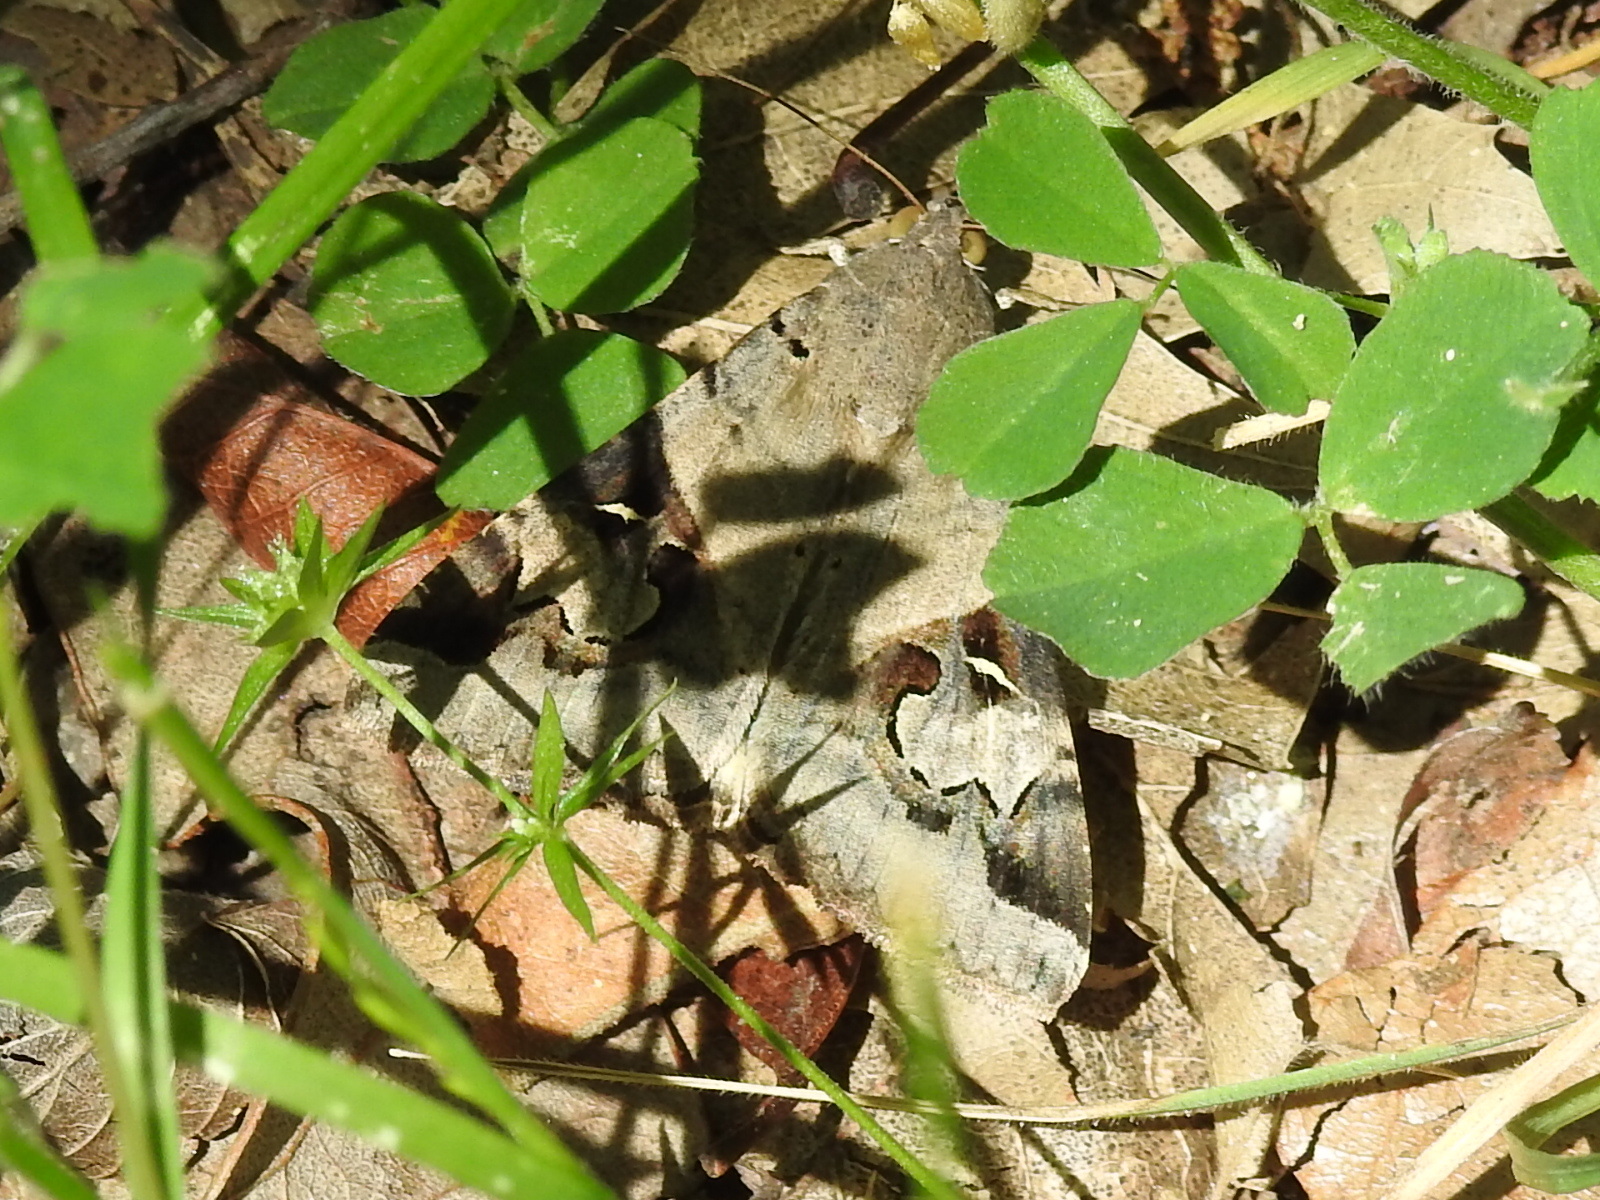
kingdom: Animalia
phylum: Arthropoda
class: Insecta
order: Lepidoptera
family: Erebidae
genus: Melipotis
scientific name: Melipotis indomita
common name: Moth
